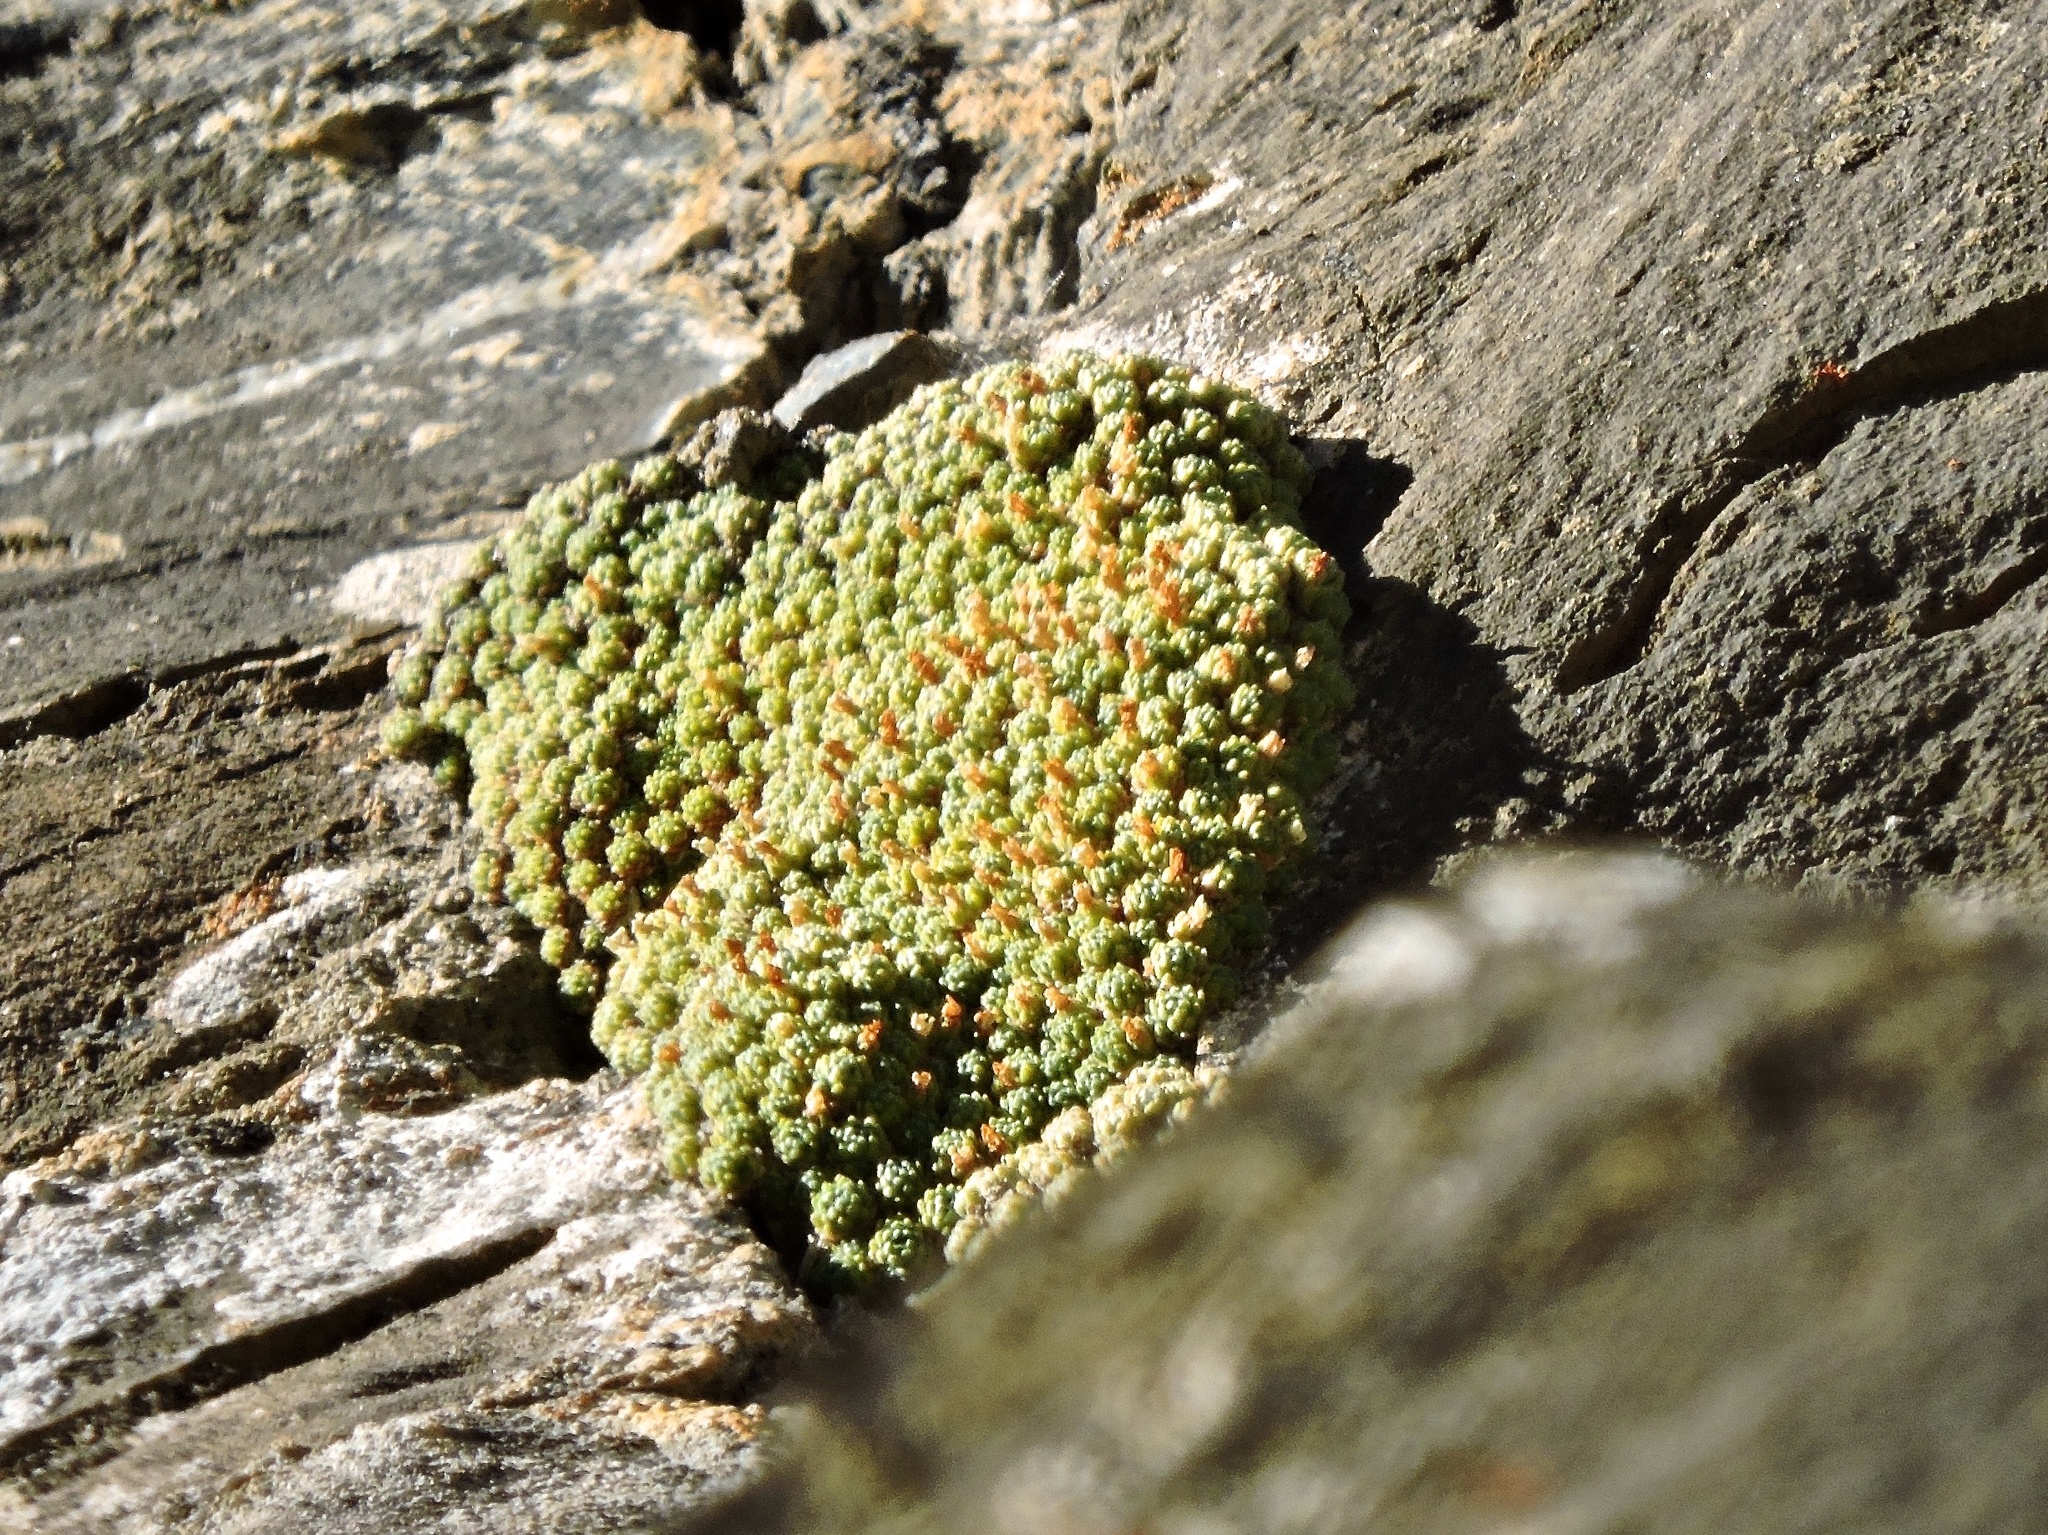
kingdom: Plantae
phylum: Tracheophyta
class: Magnoliopsida
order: Ericales
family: Primulaceae
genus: Androsace
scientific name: Androsace helvetica
